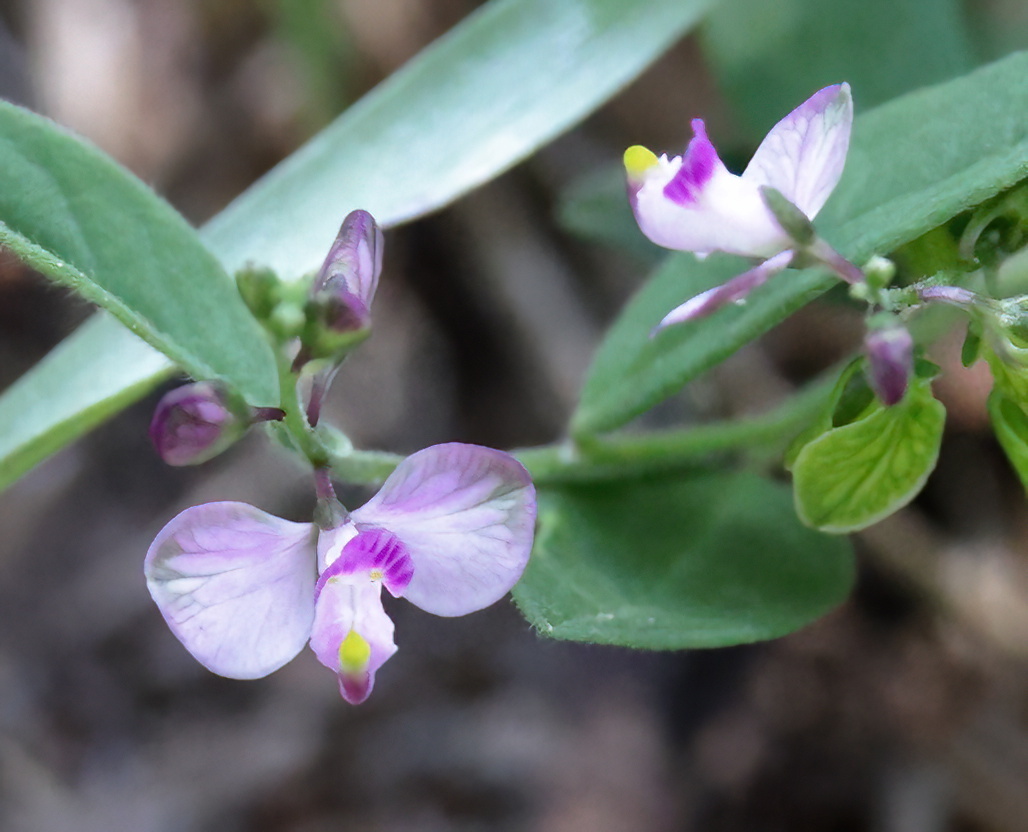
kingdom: Plantae
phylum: Tracheophyta
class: Magnoliopsida
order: Fabales
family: Polygalaceae
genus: Asemeia
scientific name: Asemeia grandiflora
